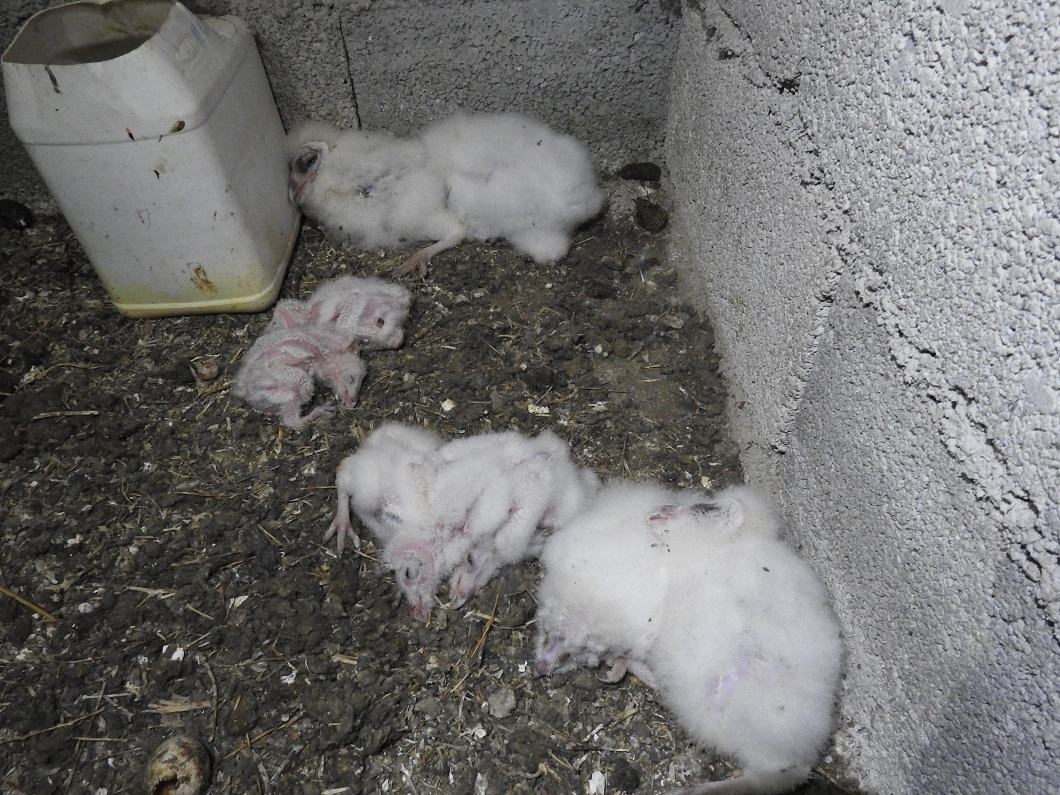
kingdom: Animalia
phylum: Chordata
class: Aves
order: Strigiformes
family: Tytonidae
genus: Tyto
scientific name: Tyto alba
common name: Barn owl
